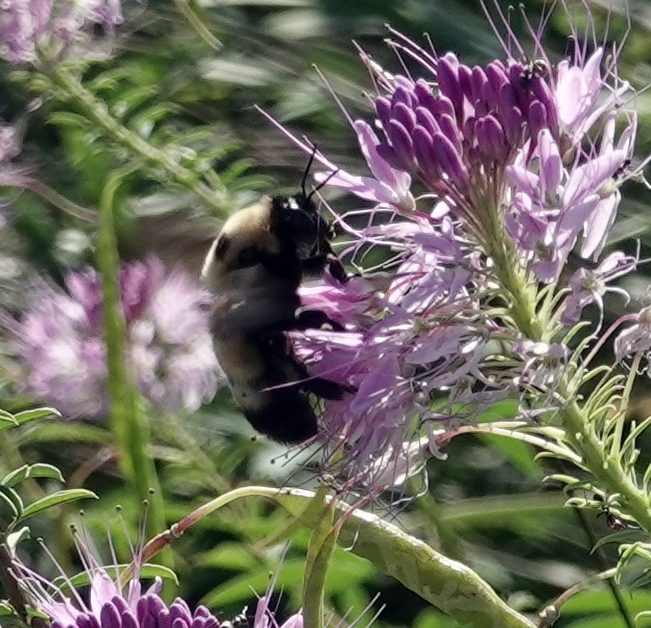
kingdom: Animalia
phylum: Arthropoda
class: Insecta
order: Hymenoptera
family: Apidae
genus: Bombus
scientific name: Bombus nevadensis
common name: Nevada bumble bee
